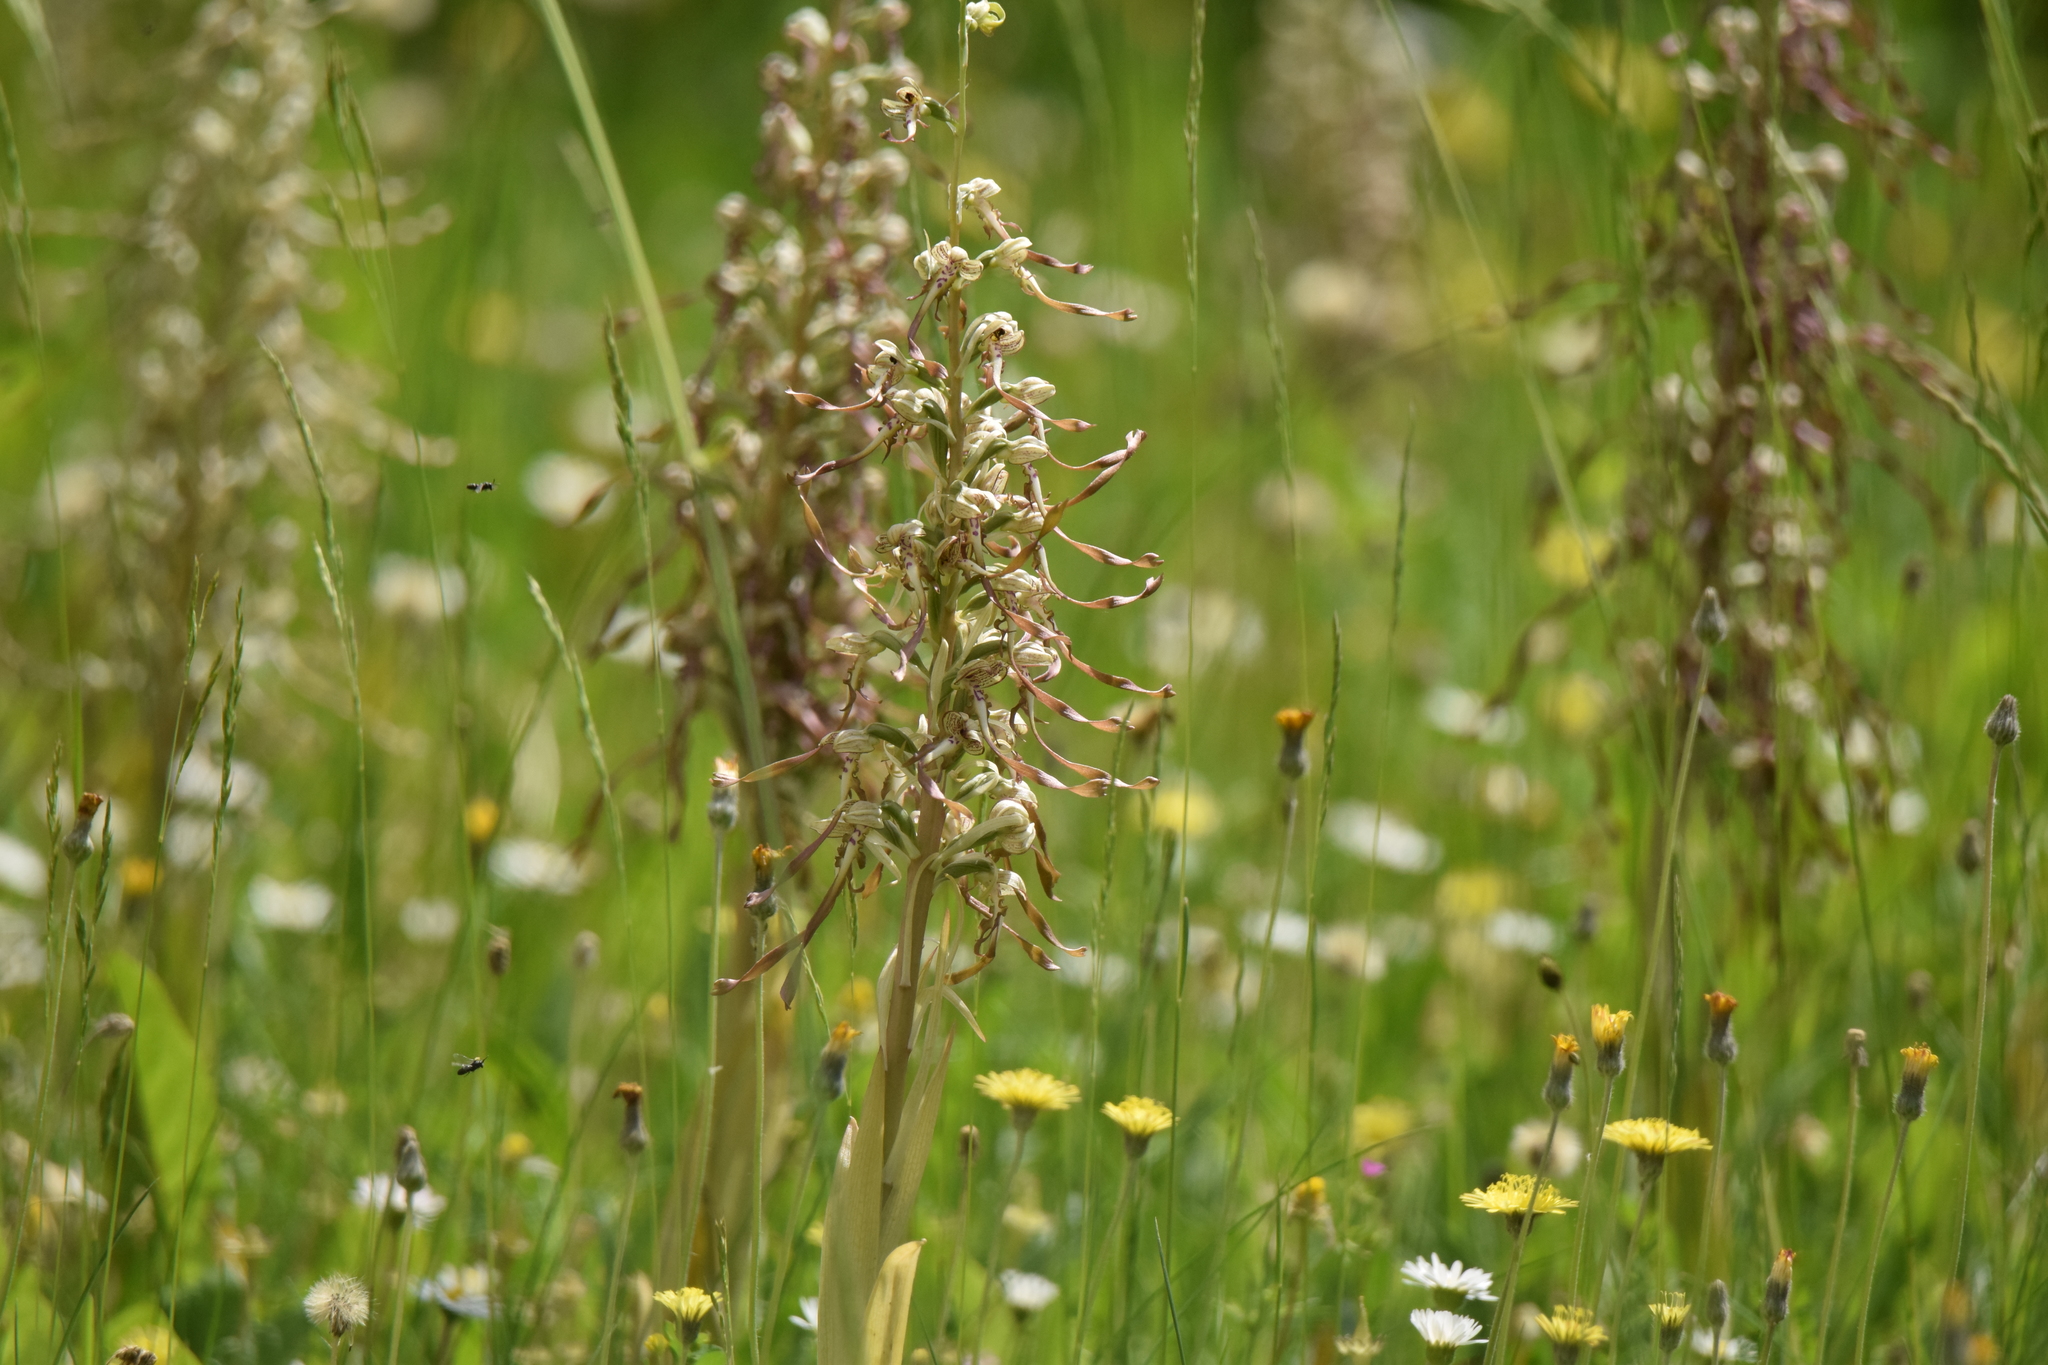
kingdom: Plantae
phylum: Tracheophyta
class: Liliopsida
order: Asparagales
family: Orchidaceae
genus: Himantoglossum
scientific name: Himantoglossum hircinum
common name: Lizard orchid
